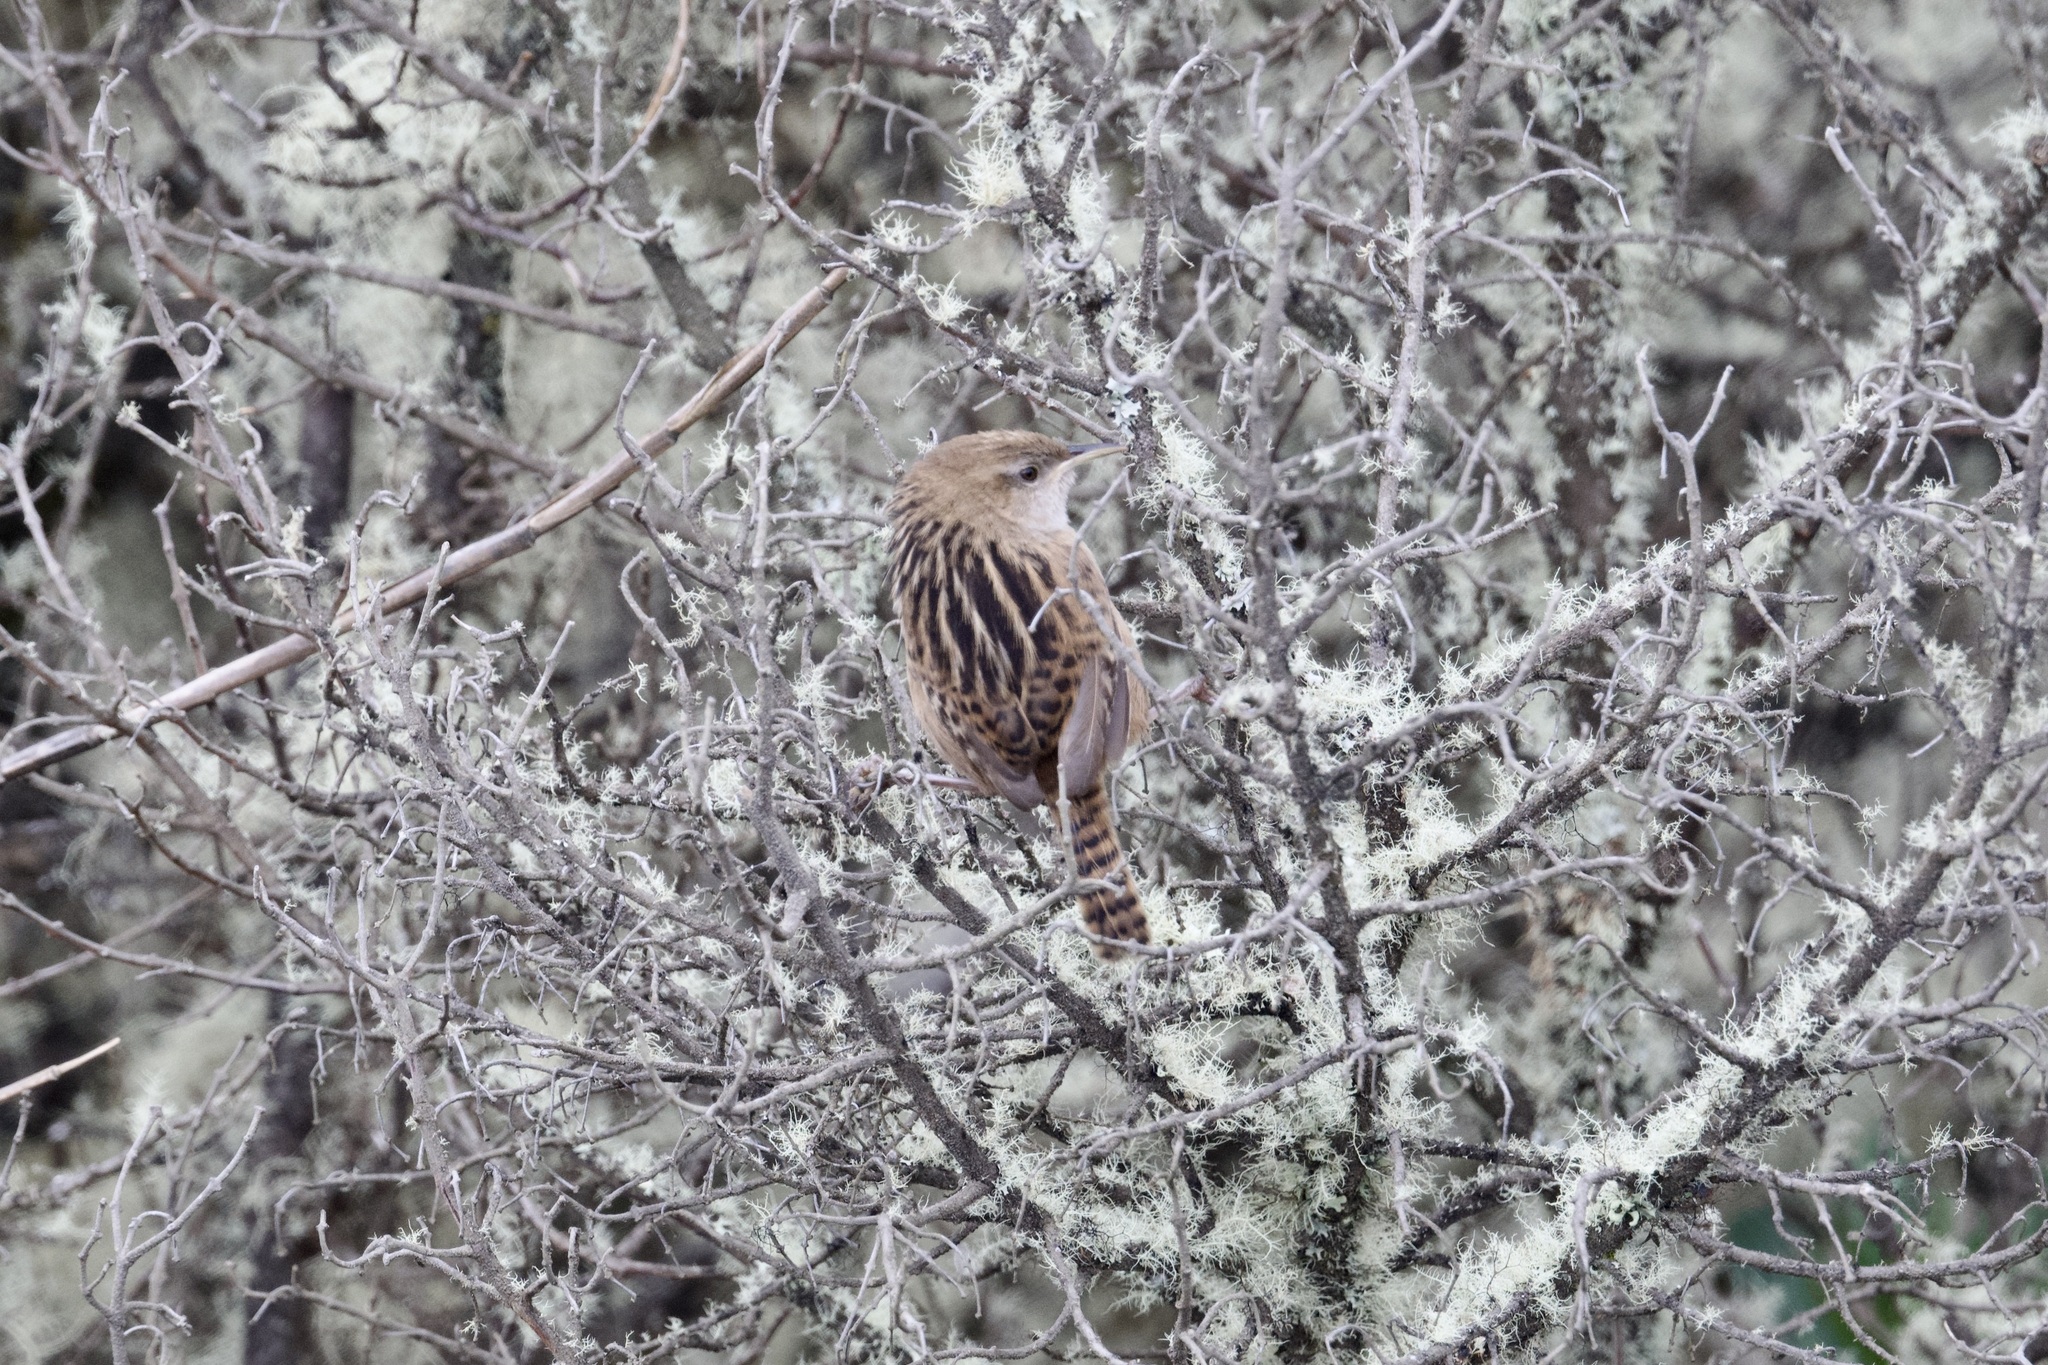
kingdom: Animalia
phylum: Chordata
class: Aves
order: Passeriformes
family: Troglodytidae
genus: Cistothorus
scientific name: Cistothorus apolinari
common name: Apolinar's wren
